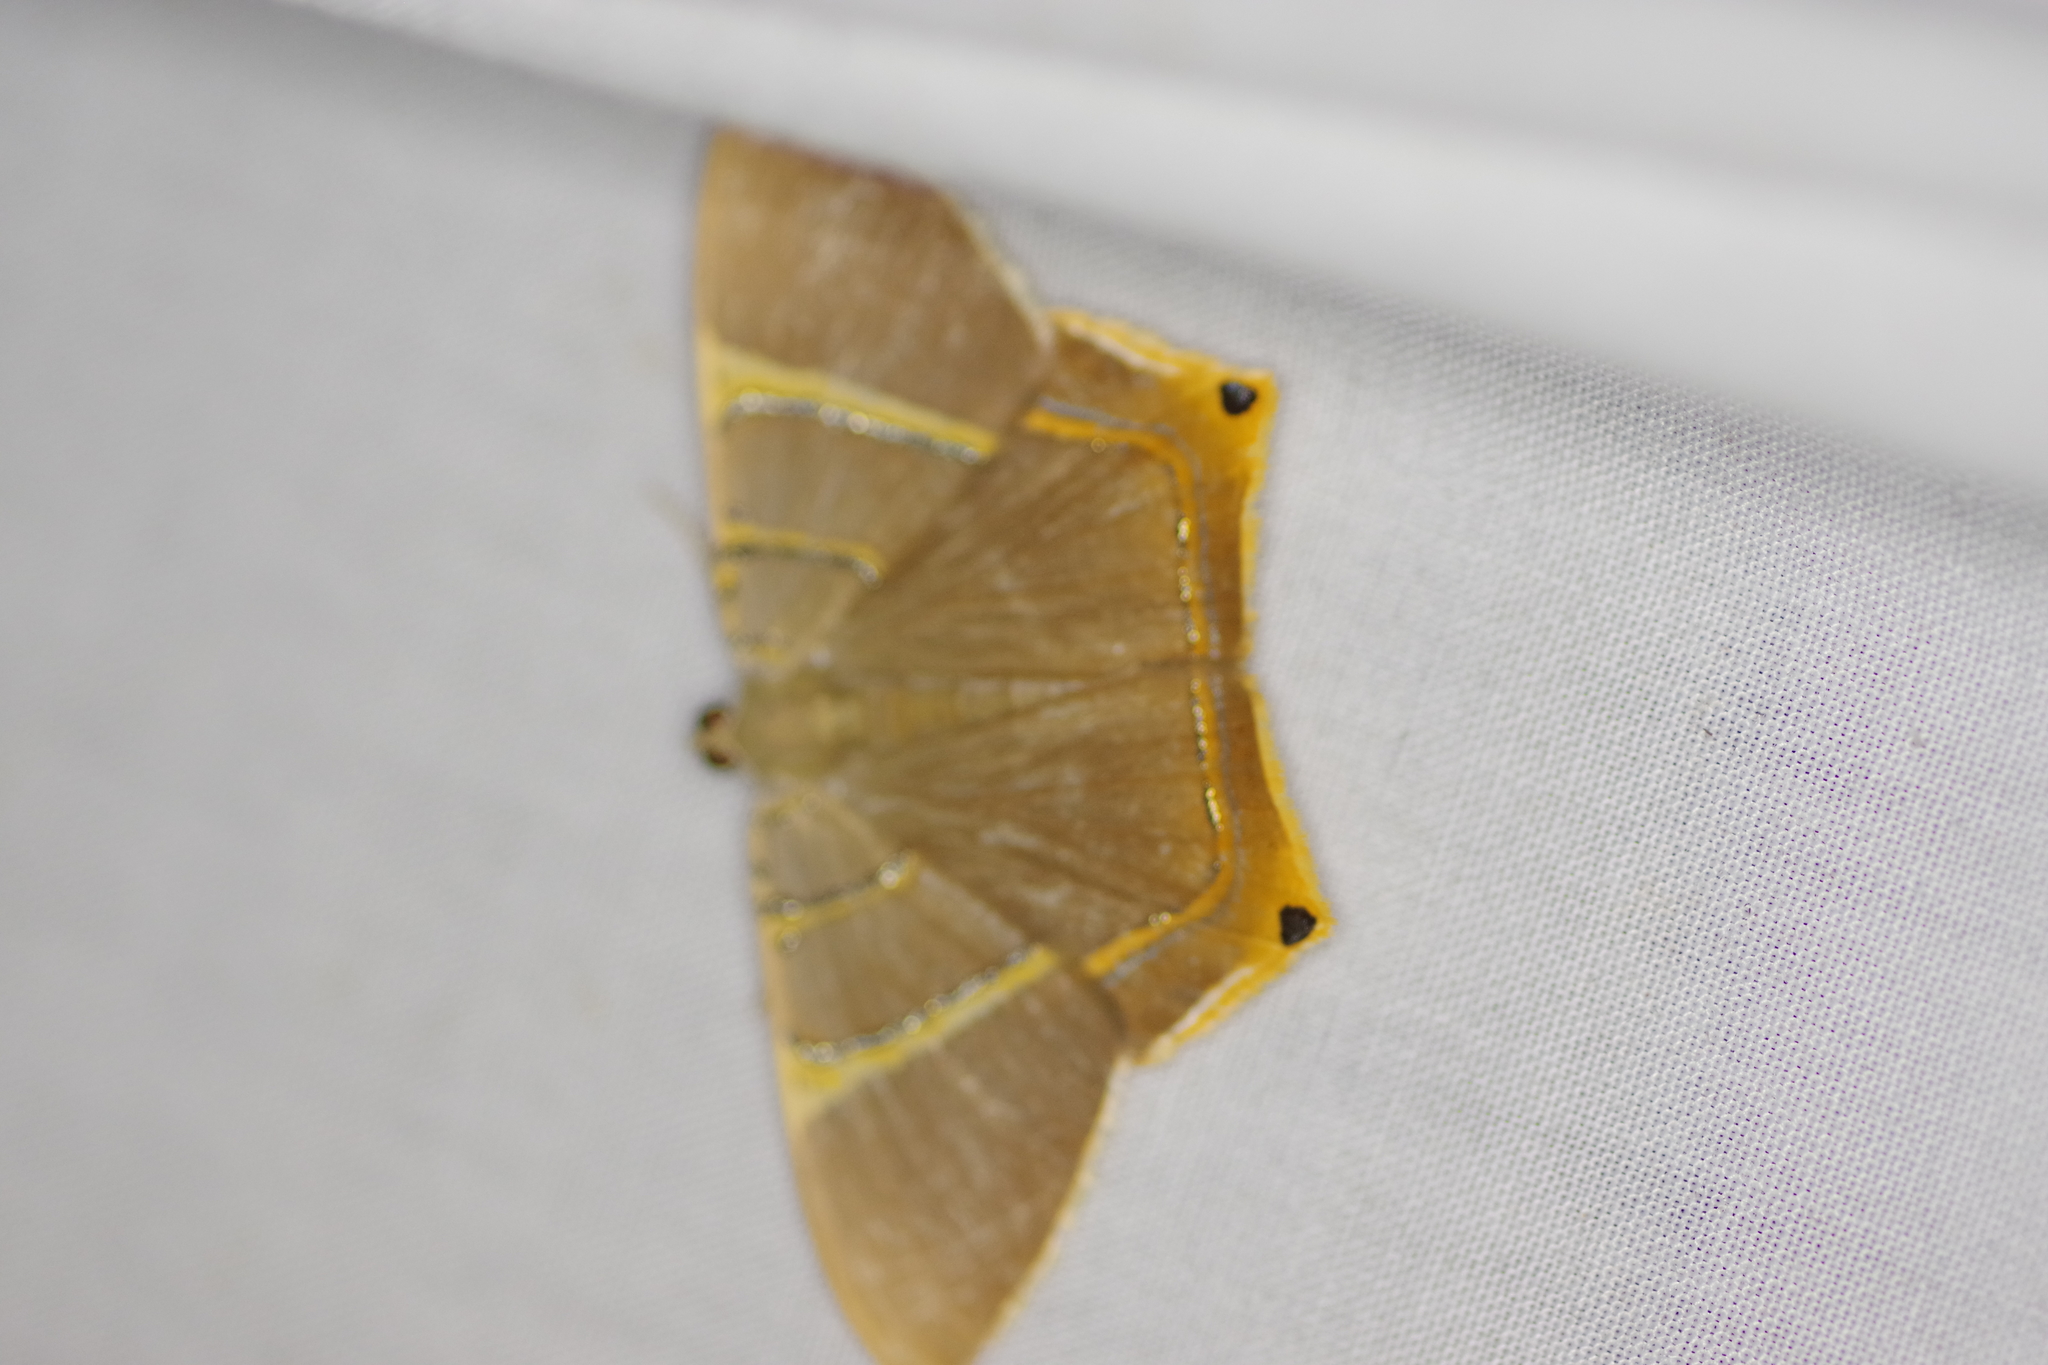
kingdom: Animalia
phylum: Arthropoda
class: Insecta
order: Lepidoptera
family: Geometridae
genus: Phrygionis
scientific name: Phrygionis polita
